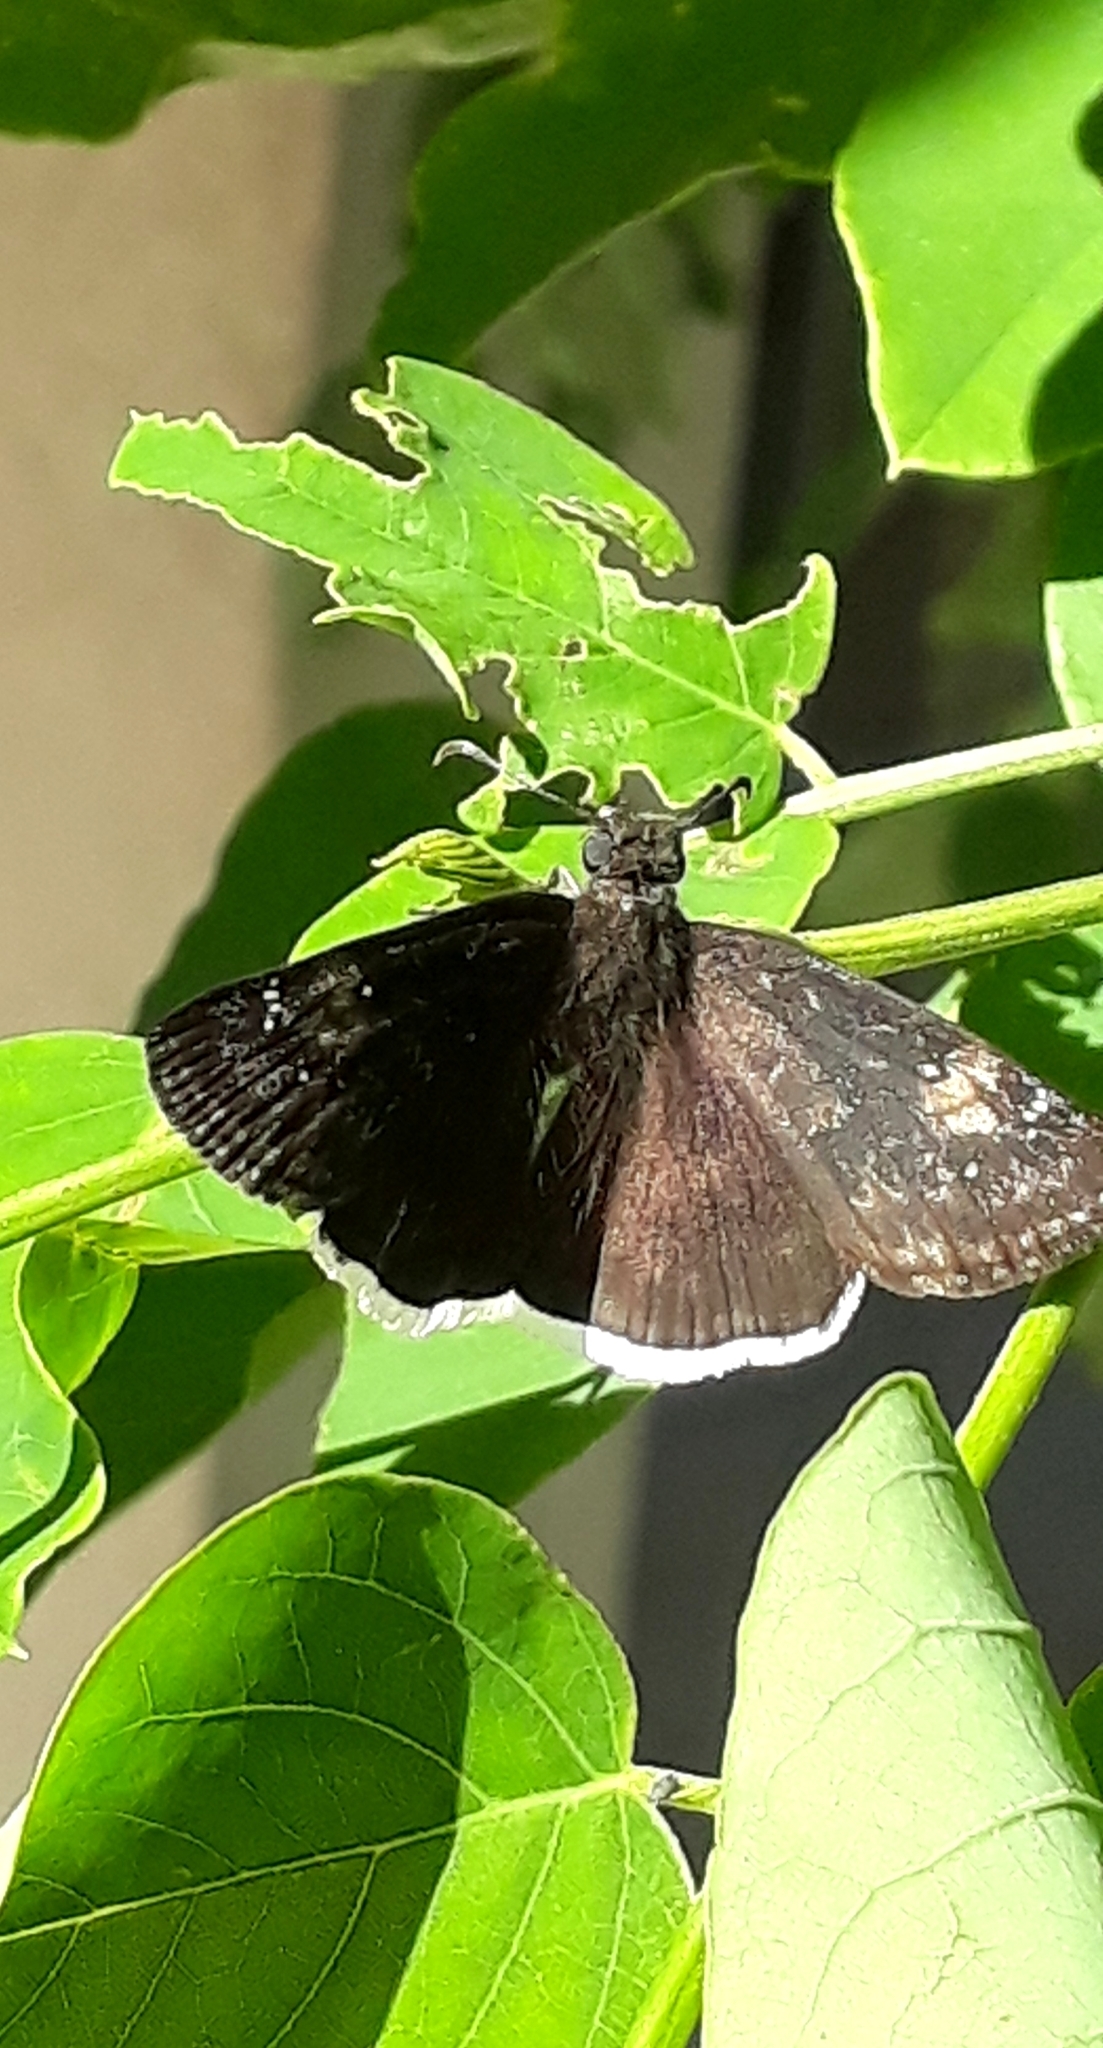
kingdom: Animalia
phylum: Arthropoda
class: Insecta
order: Lepidoptera
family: Hesperiidae
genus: Erynnis
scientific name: Erynnis funeralis
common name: Funereal duskywing
